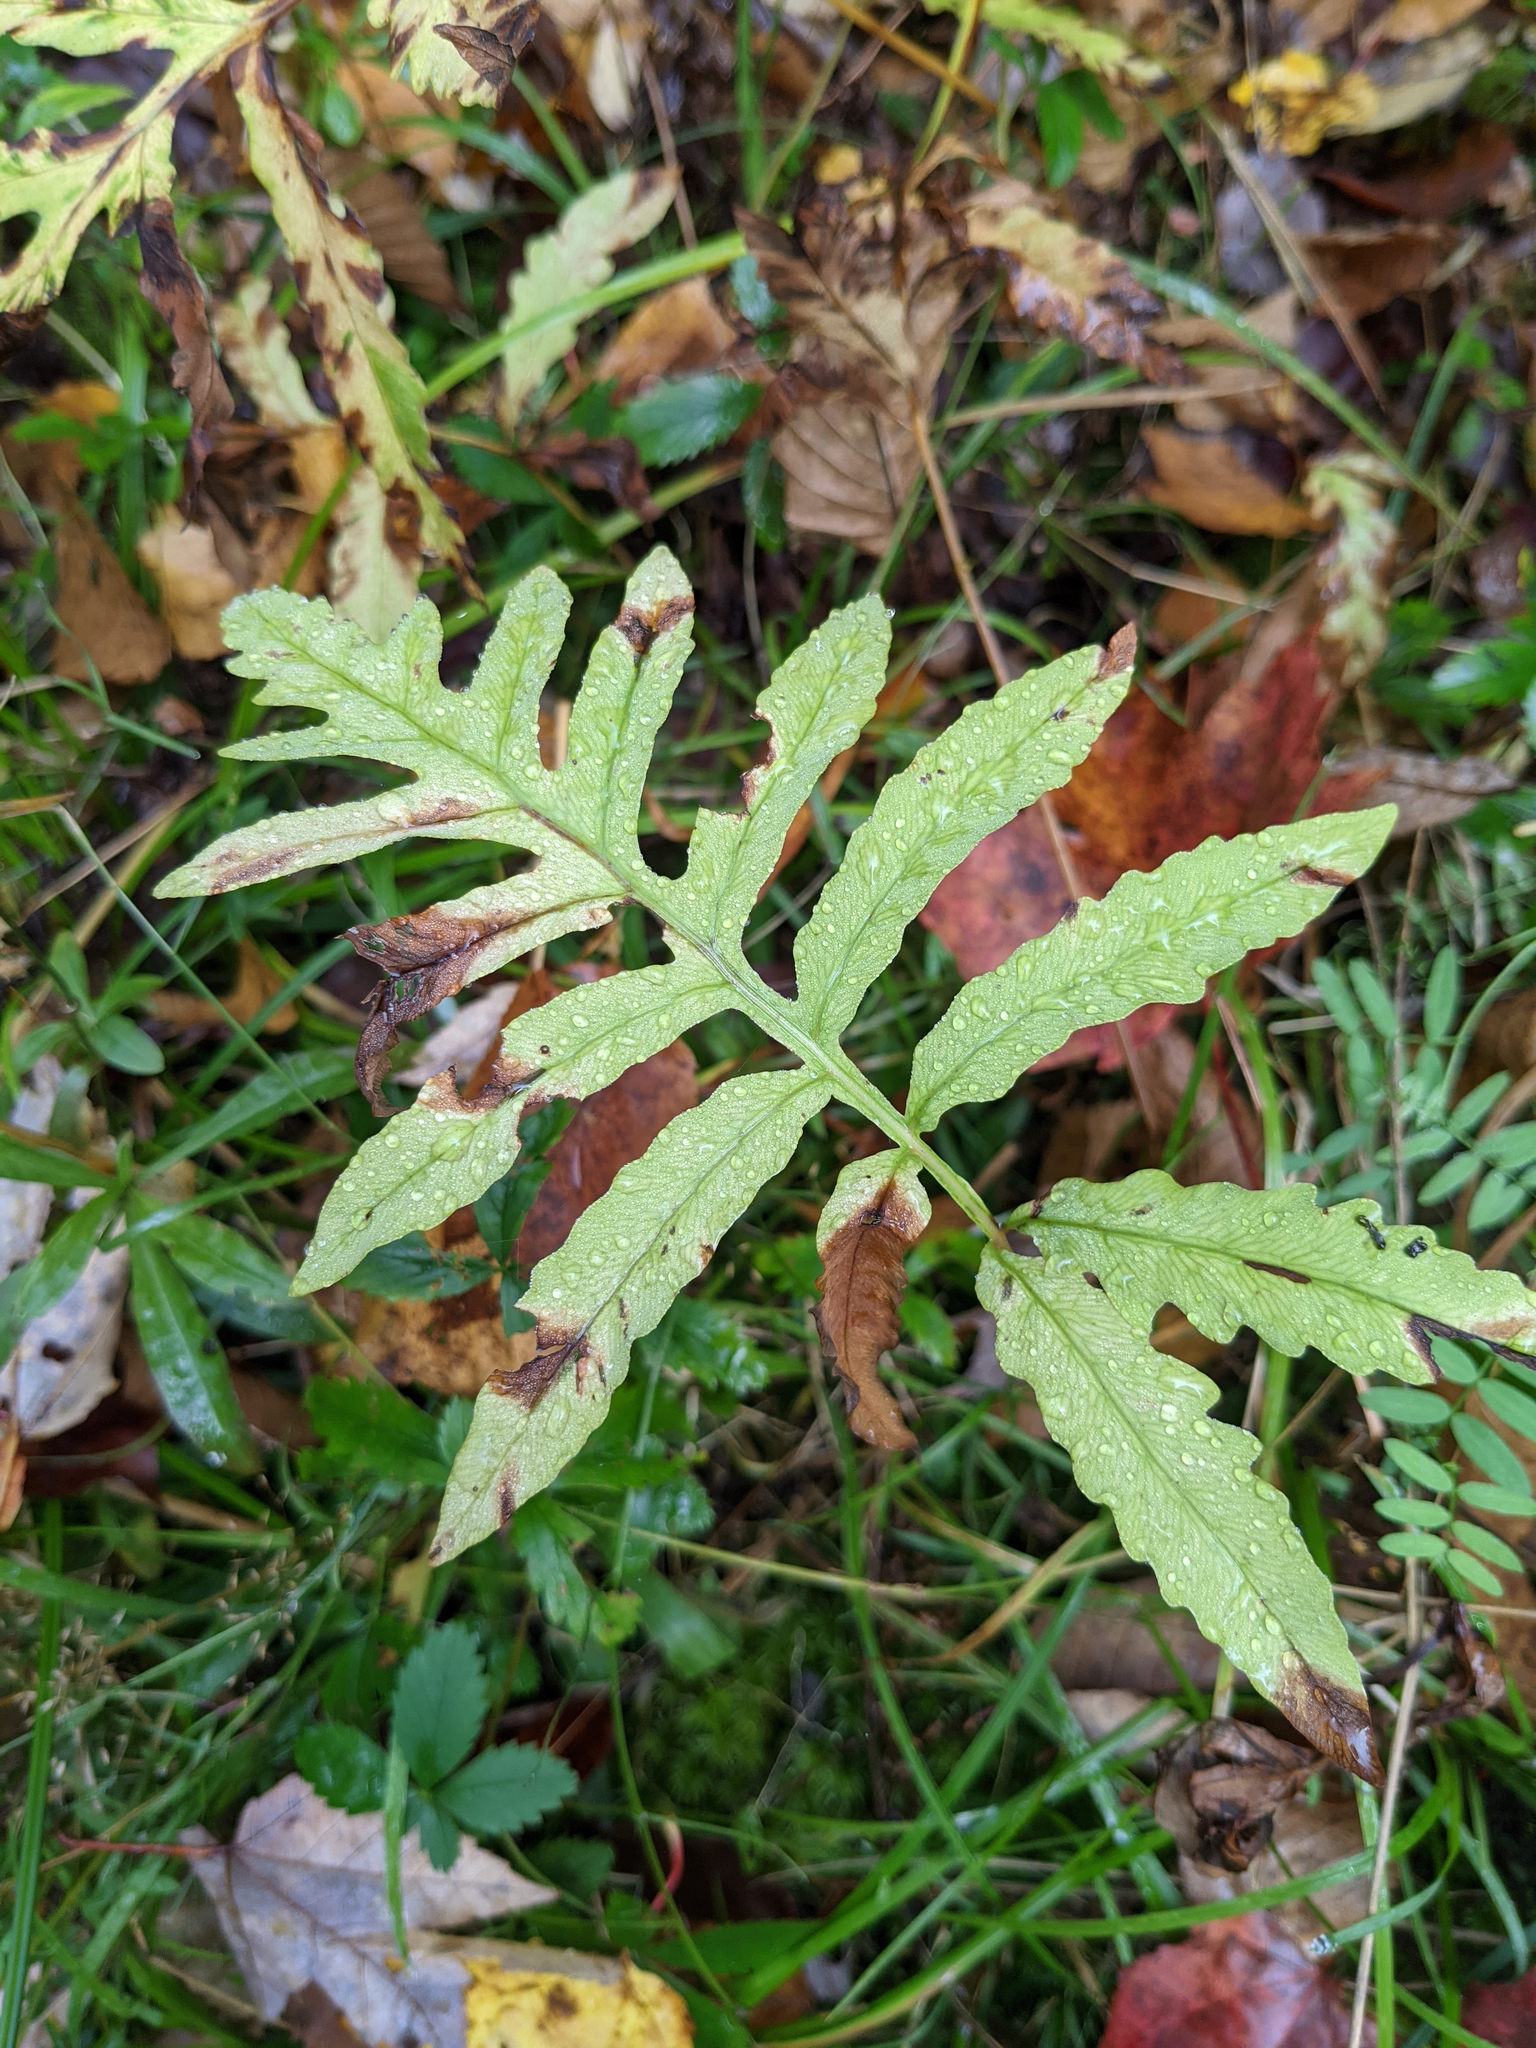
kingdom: Plantae
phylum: Tracheophyta
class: Polypodiopsida
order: Polypodiales
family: Onocleaceae
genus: Onoclea
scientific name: Onoclea sensibilis
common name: Sensitive fern
